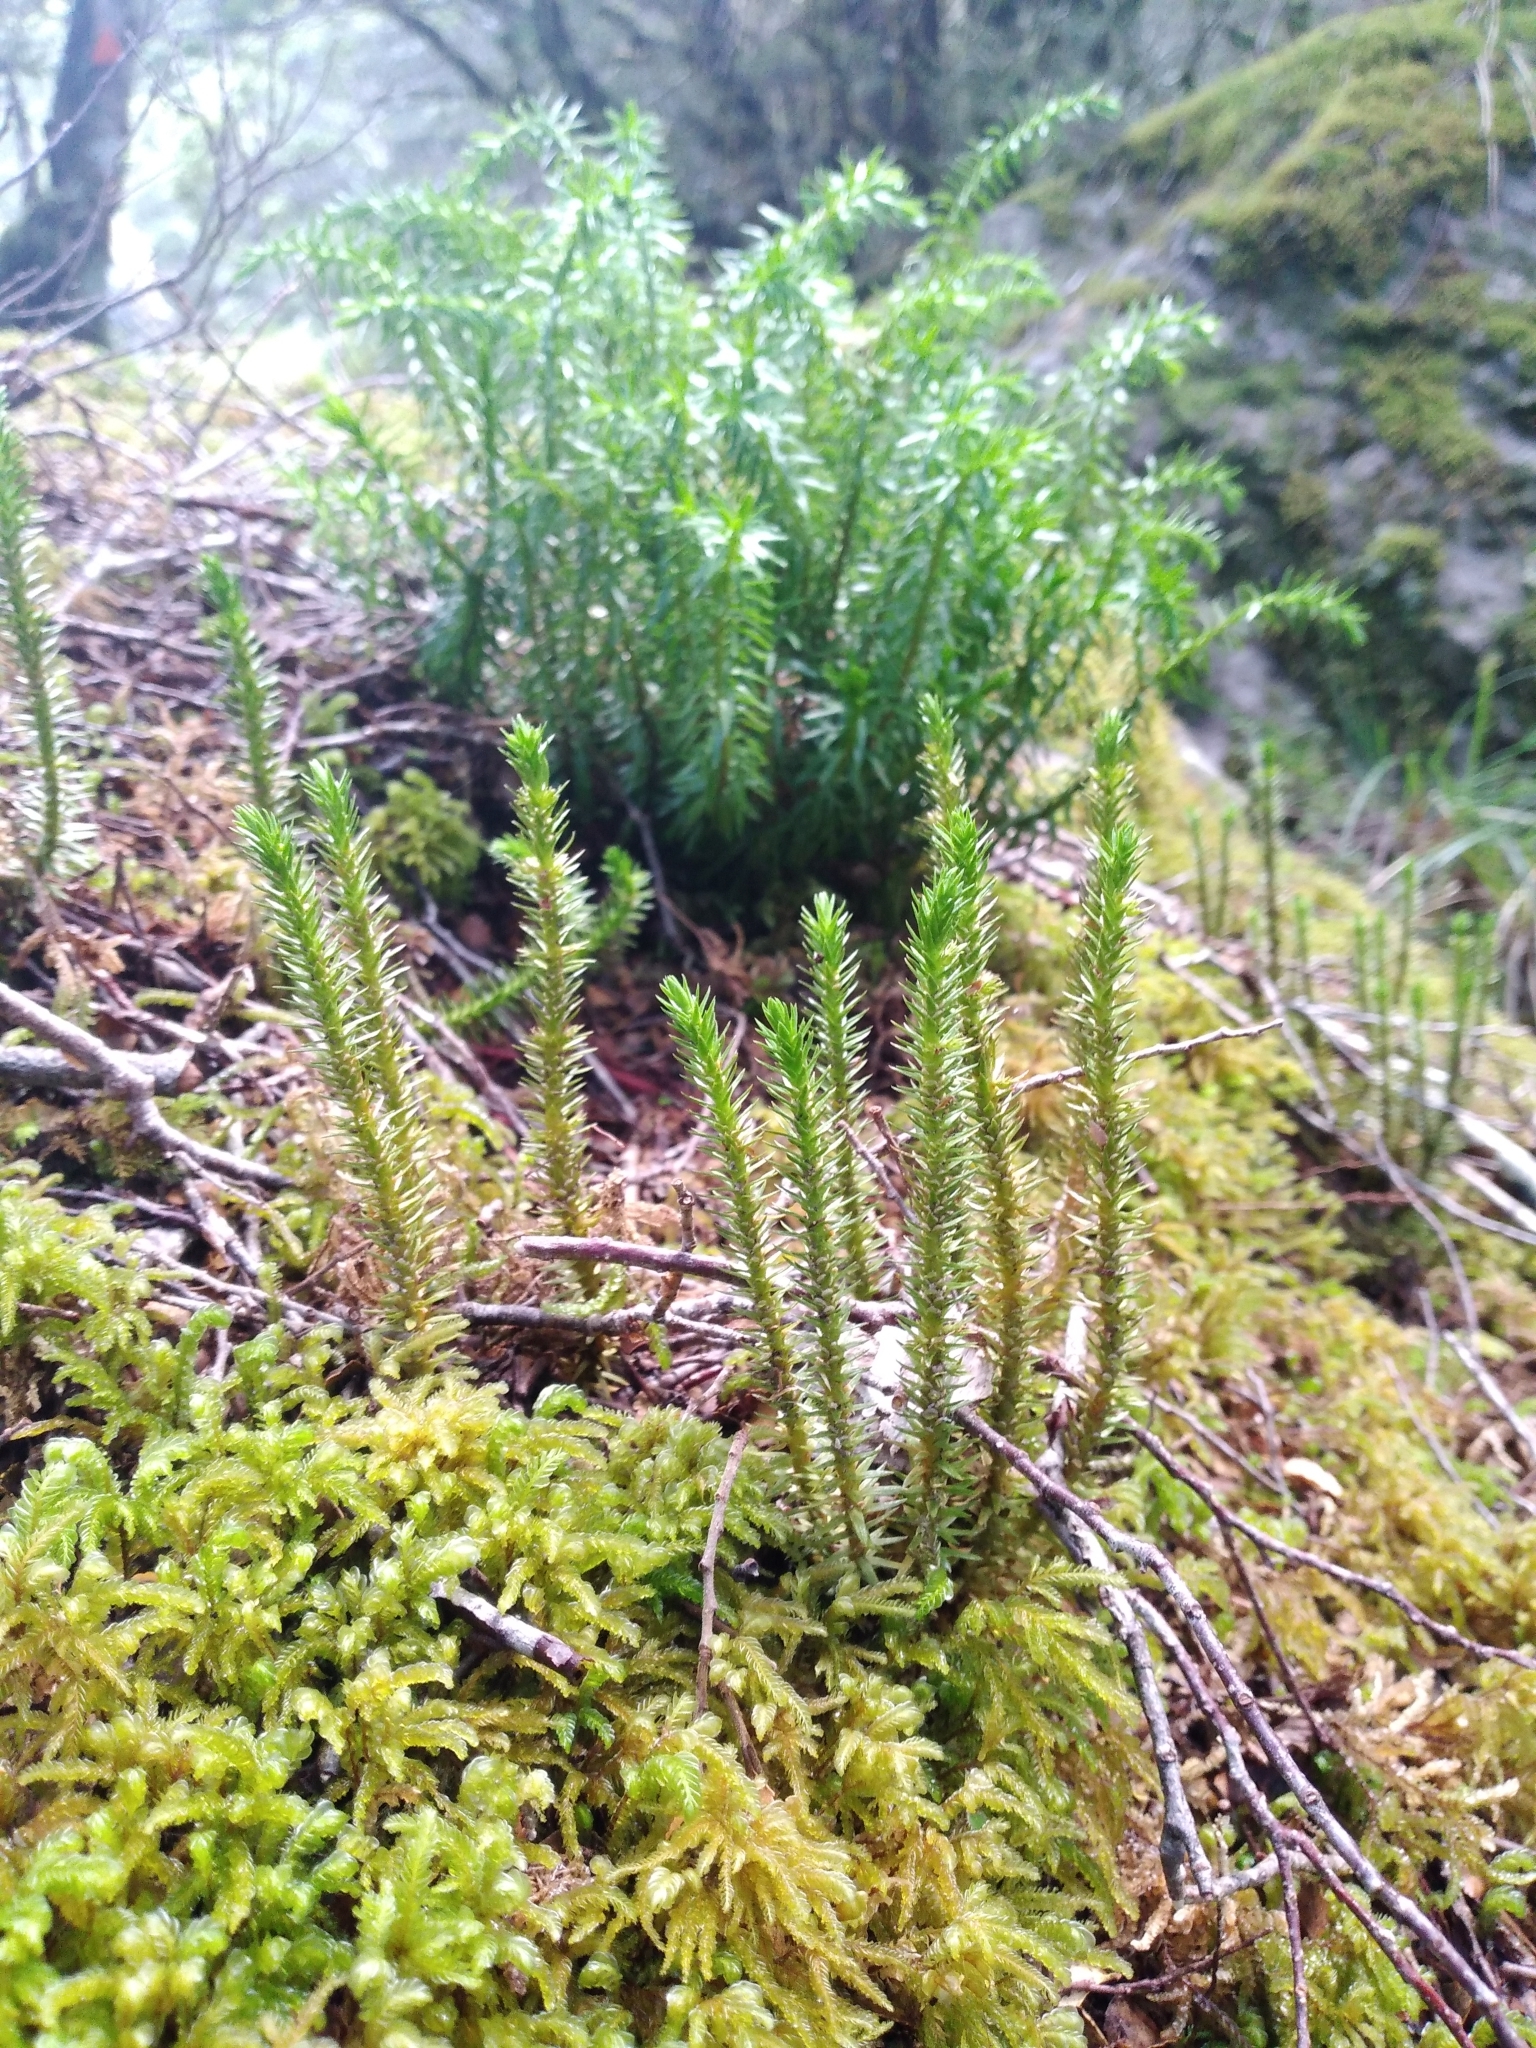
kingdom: Plantae
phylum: Tracheophyta
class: Lycopodiopsida
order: Lycopodiales
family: Lycopodiaceae
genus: Huperzia
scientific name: Huperzia australiana
